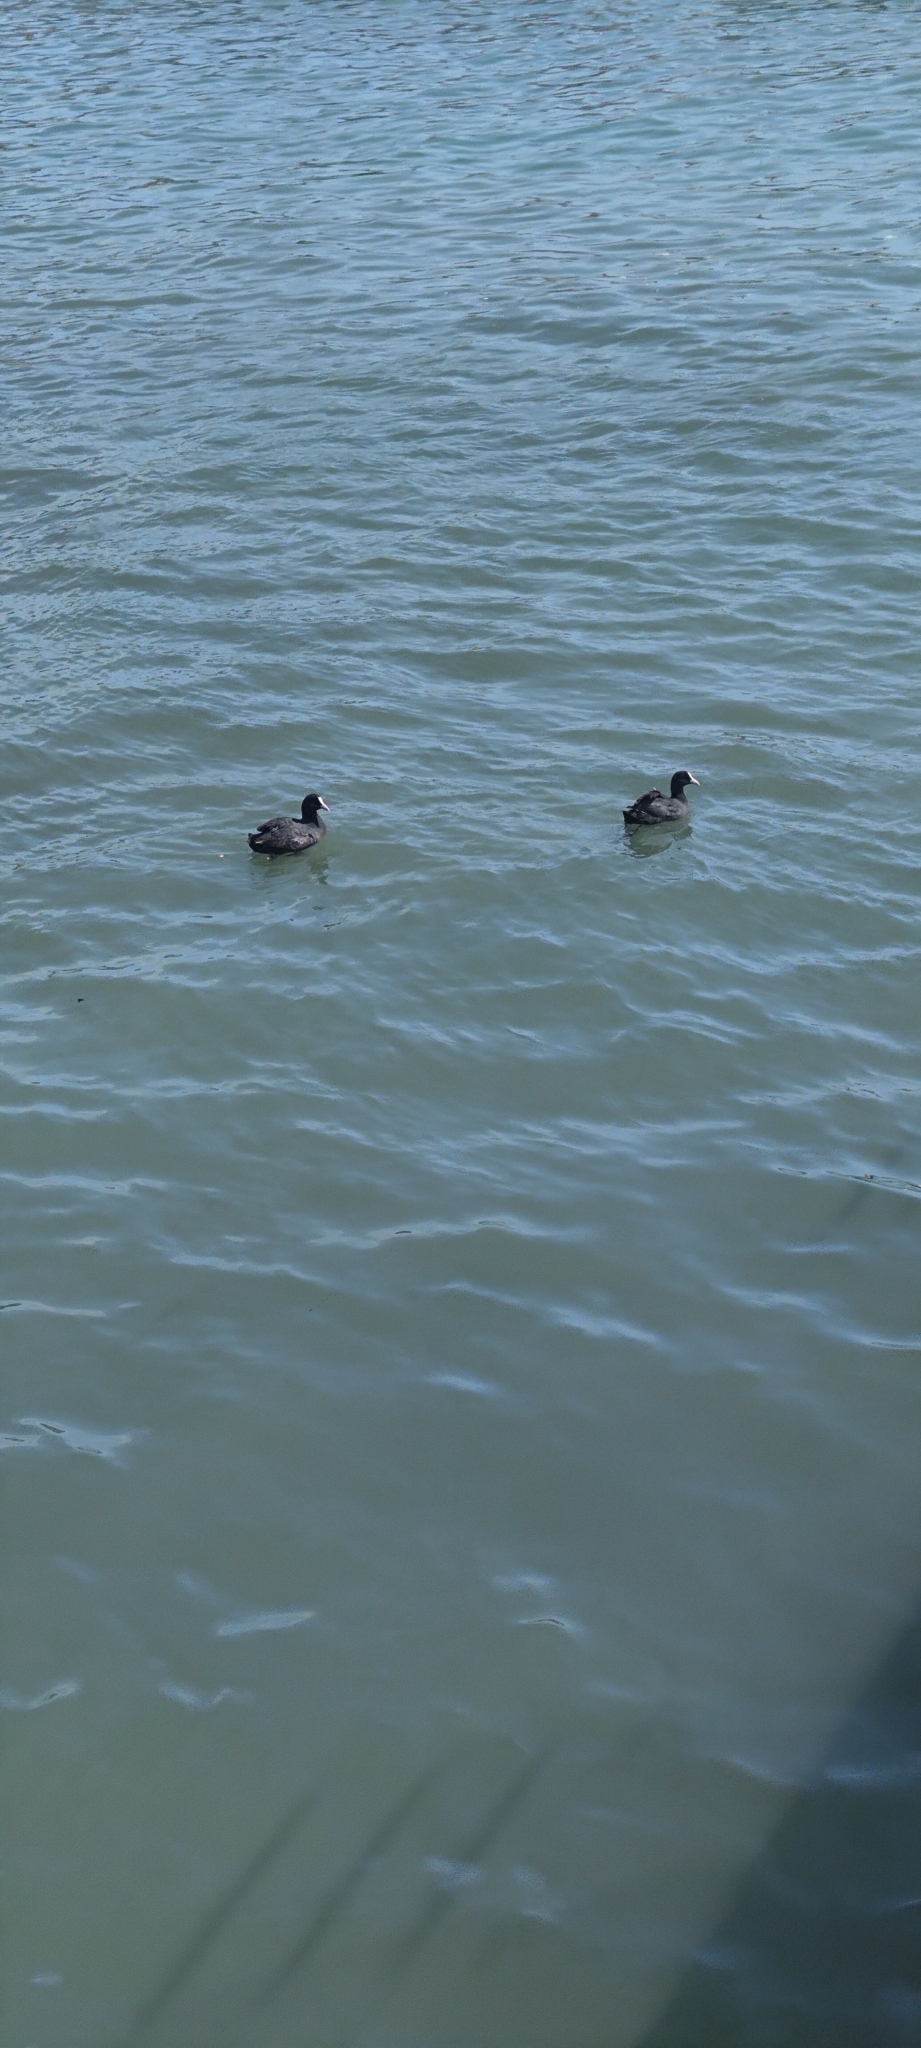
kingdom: Animalia
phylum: Chordata
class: Aves
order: Gruiformes
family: Rallidae
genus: Fulica
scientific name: Fulica atra
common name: Eurasian coot
